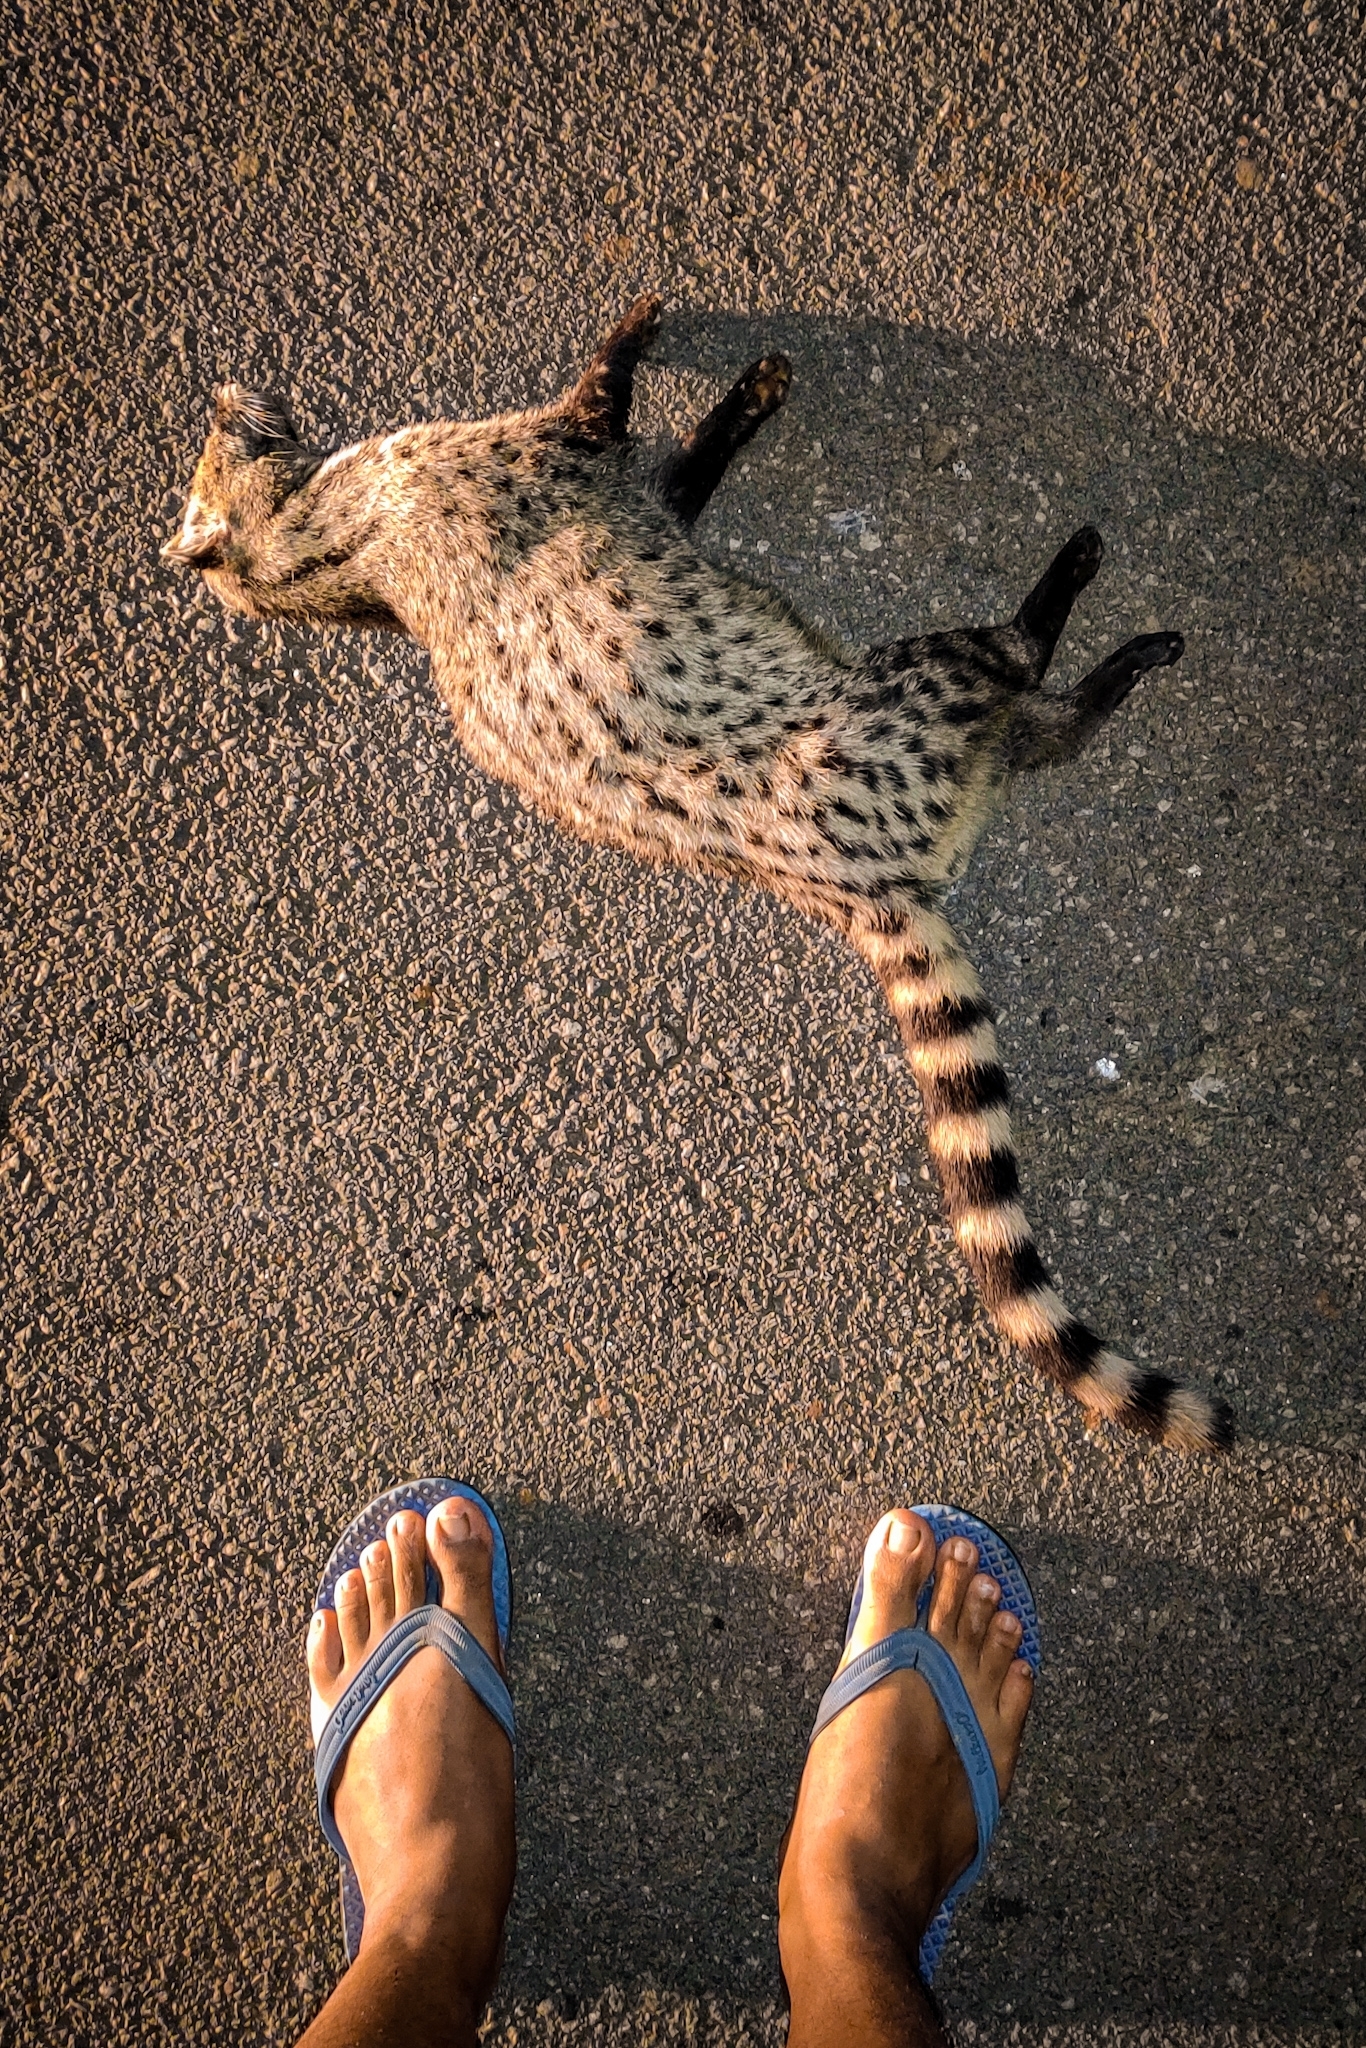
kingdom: Animalia
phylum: Chordata
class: Mammalia
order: Carnivora
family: Viverridae
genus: Viverricula
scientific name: Viverricula indica
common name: Small indian civet
